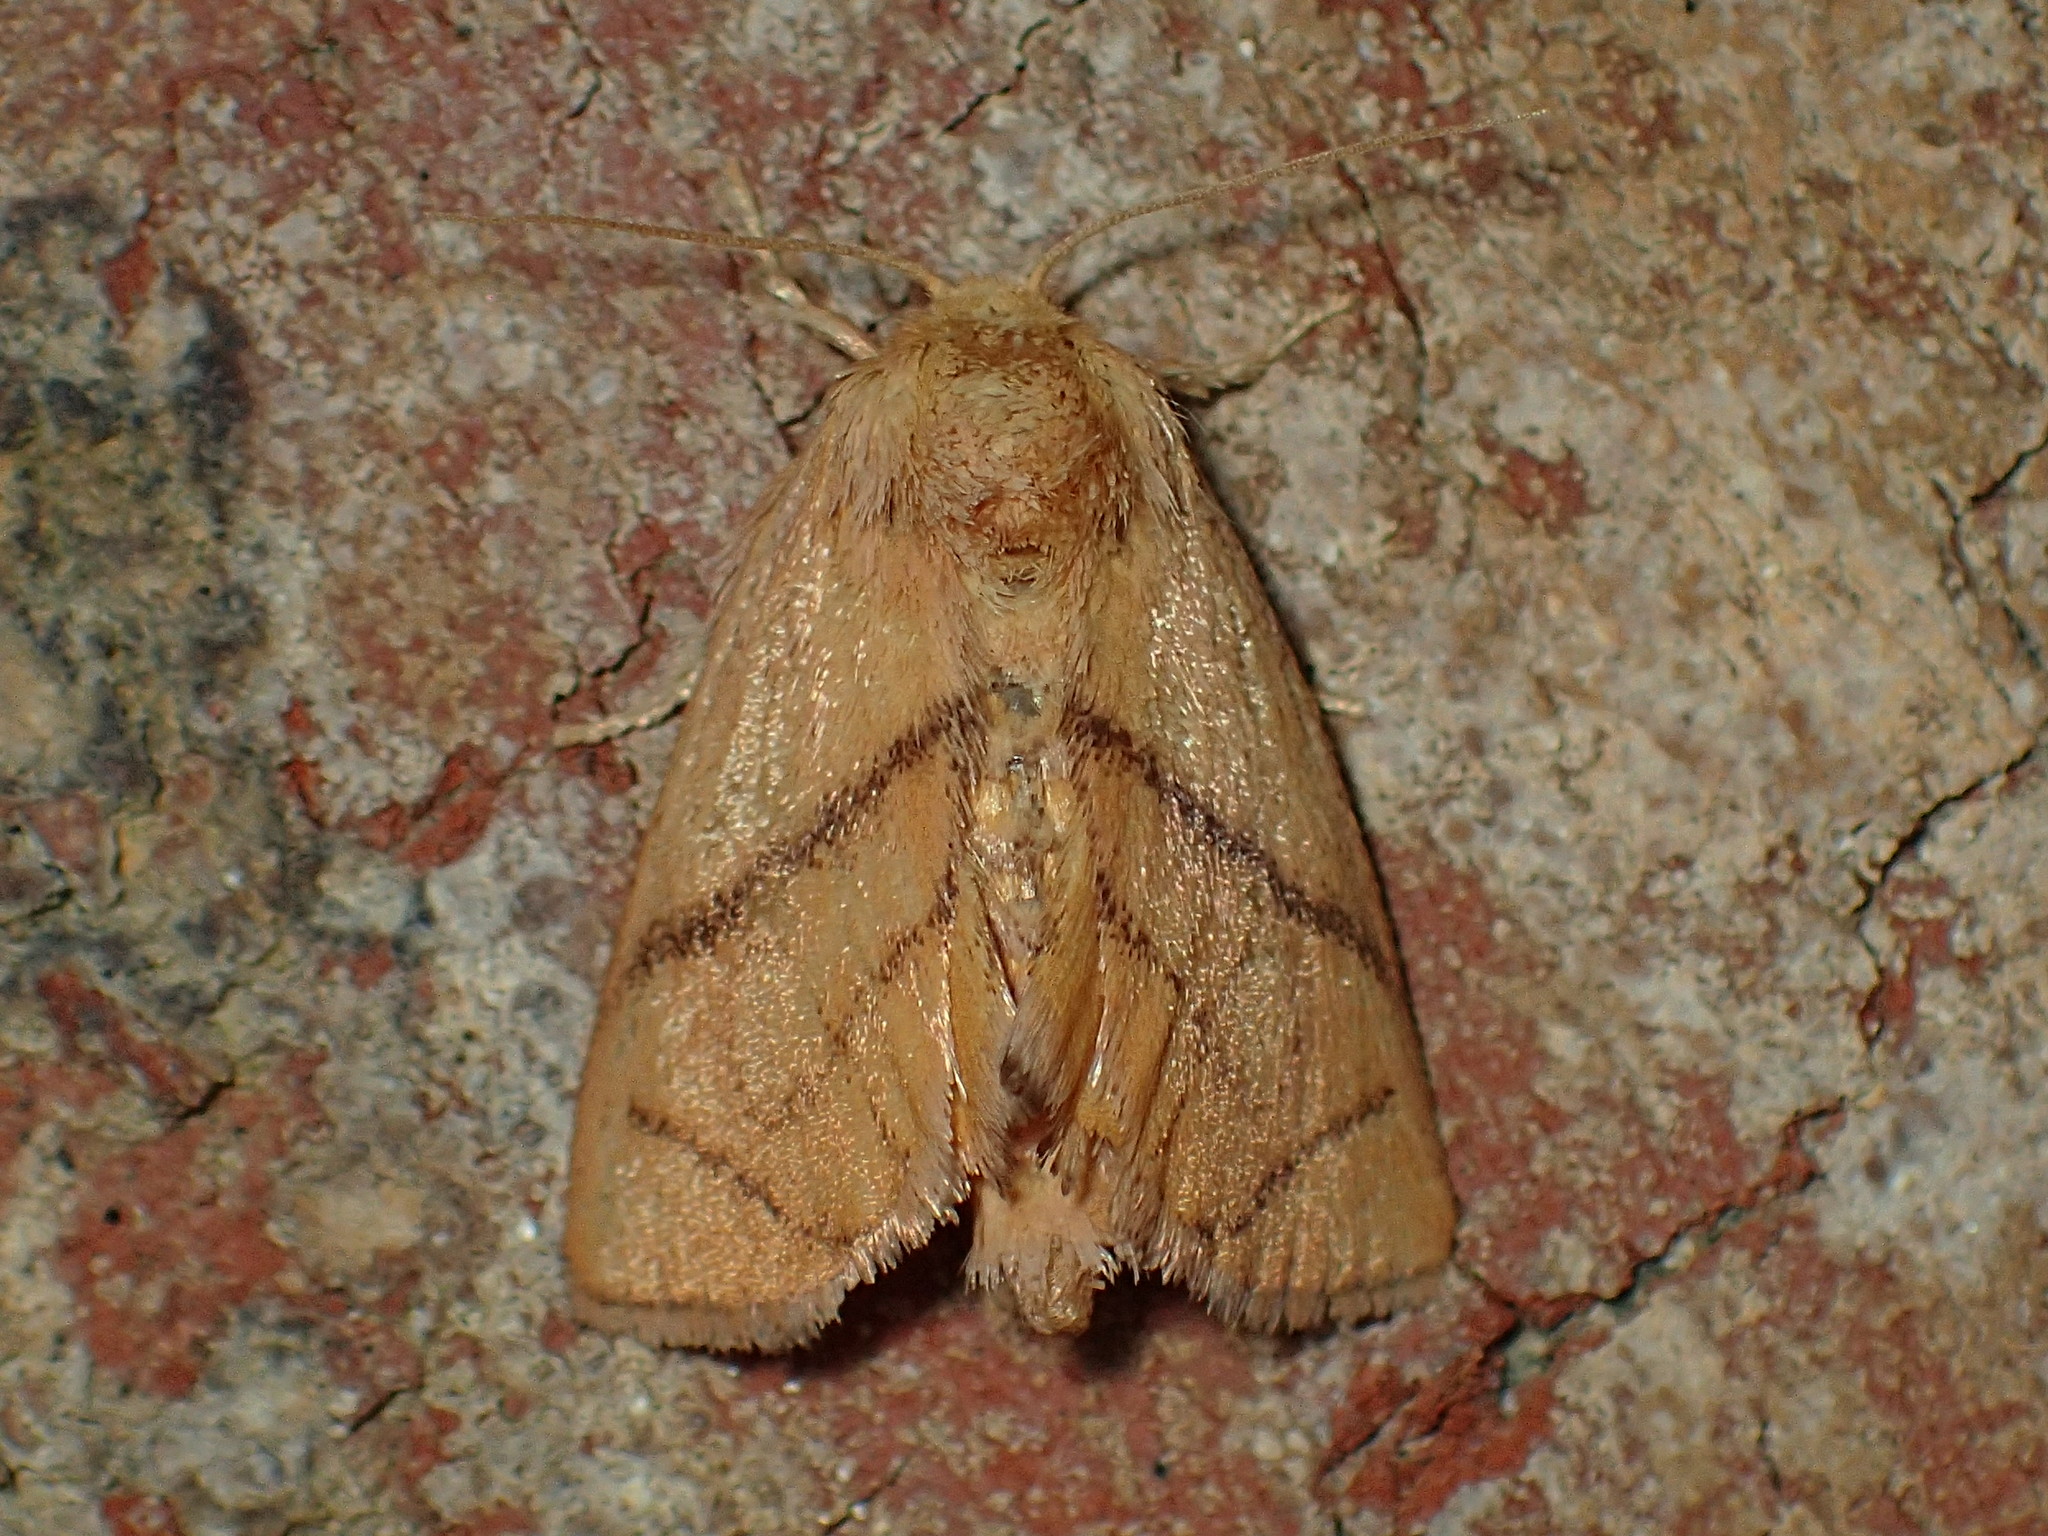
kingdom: Animalia
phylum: Arthropoda
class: Insecta
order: Lepidoptera
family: Limacodidae
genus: Apoda
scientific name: Apoda y-inversa
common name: Yellow-collared slug moth
